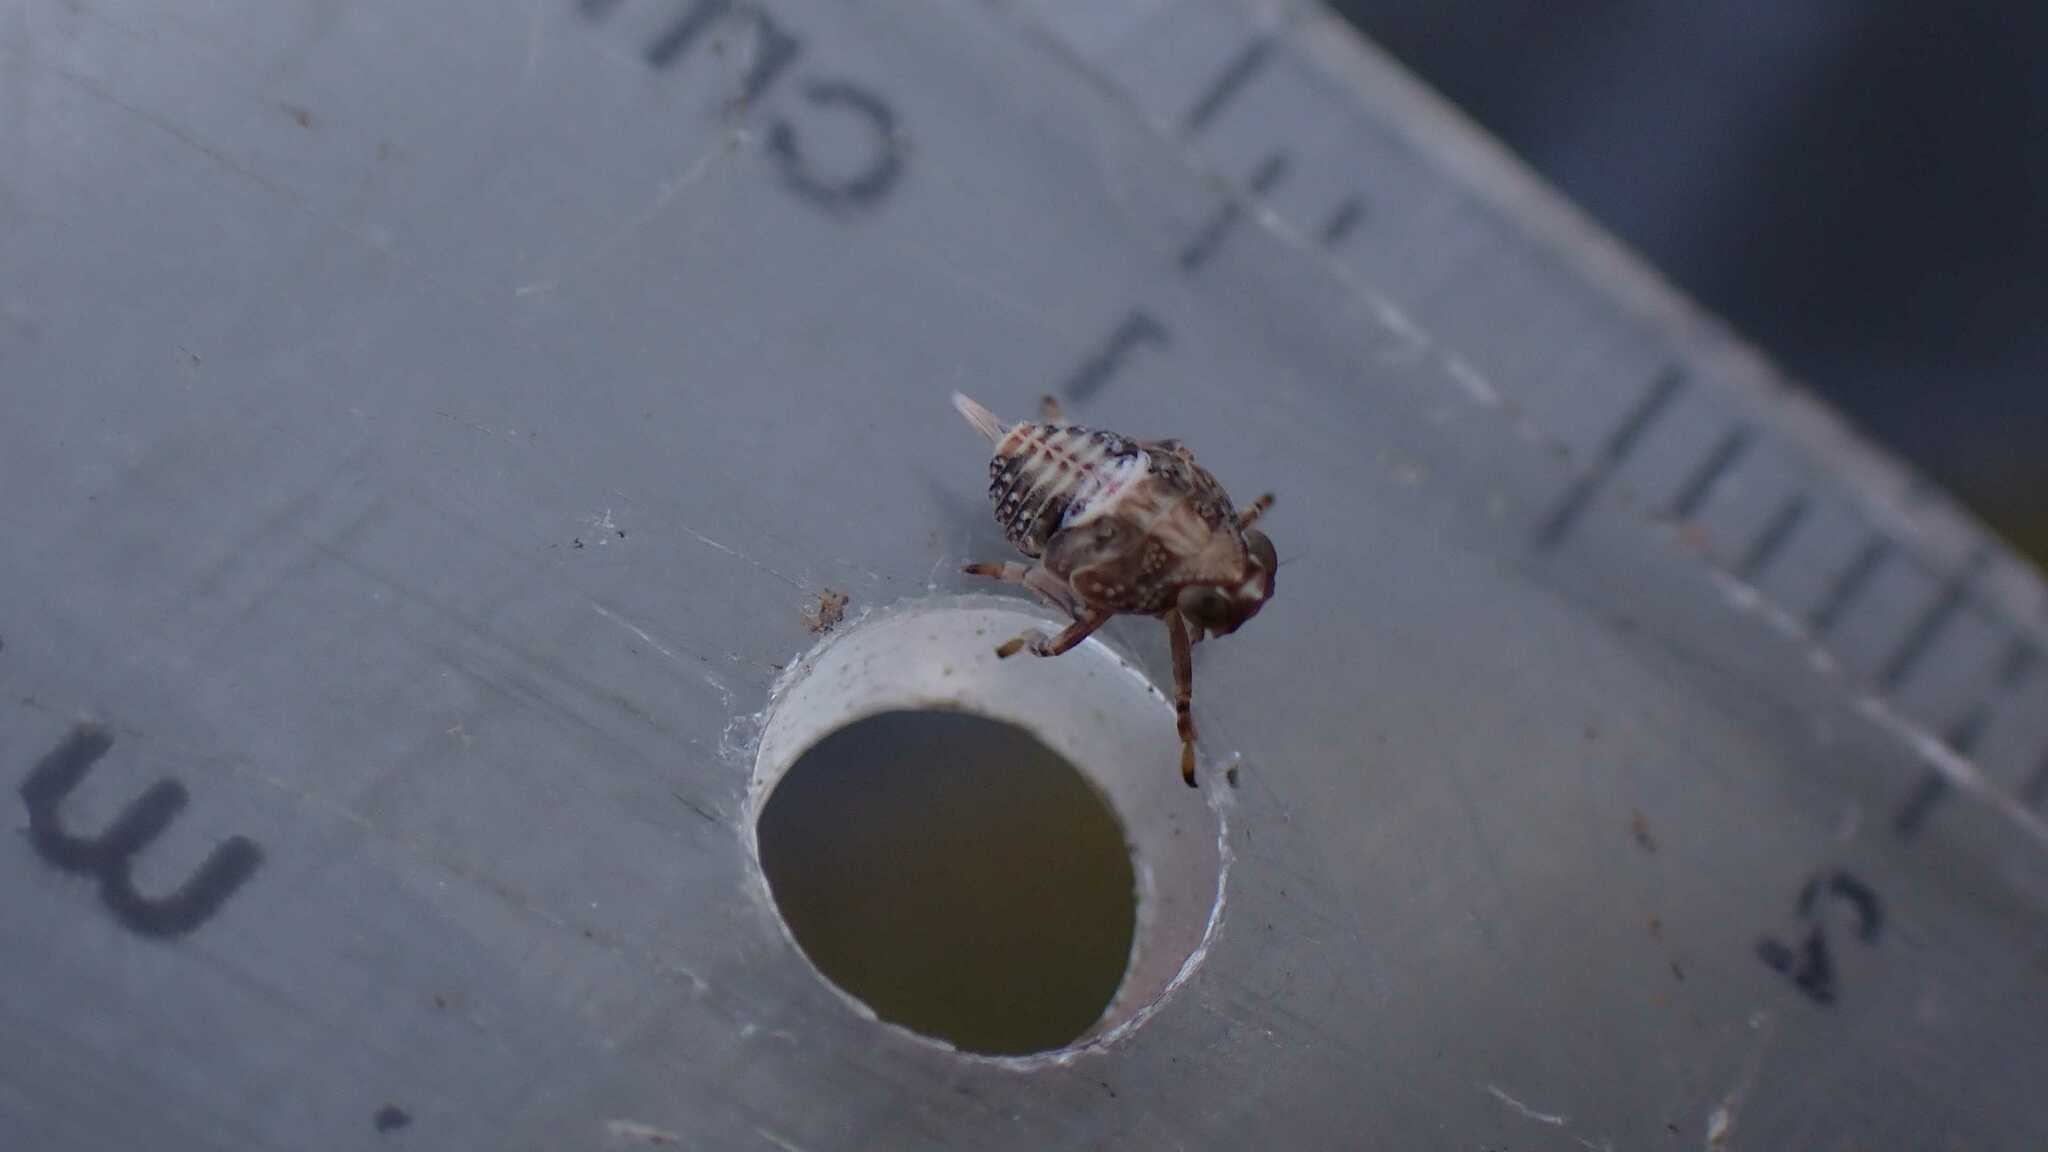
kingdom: Animalia
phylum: Arthropoda
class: Insecta
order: Hemiptera
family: Issidae
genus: Issus
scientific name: Issus coleoptratus
